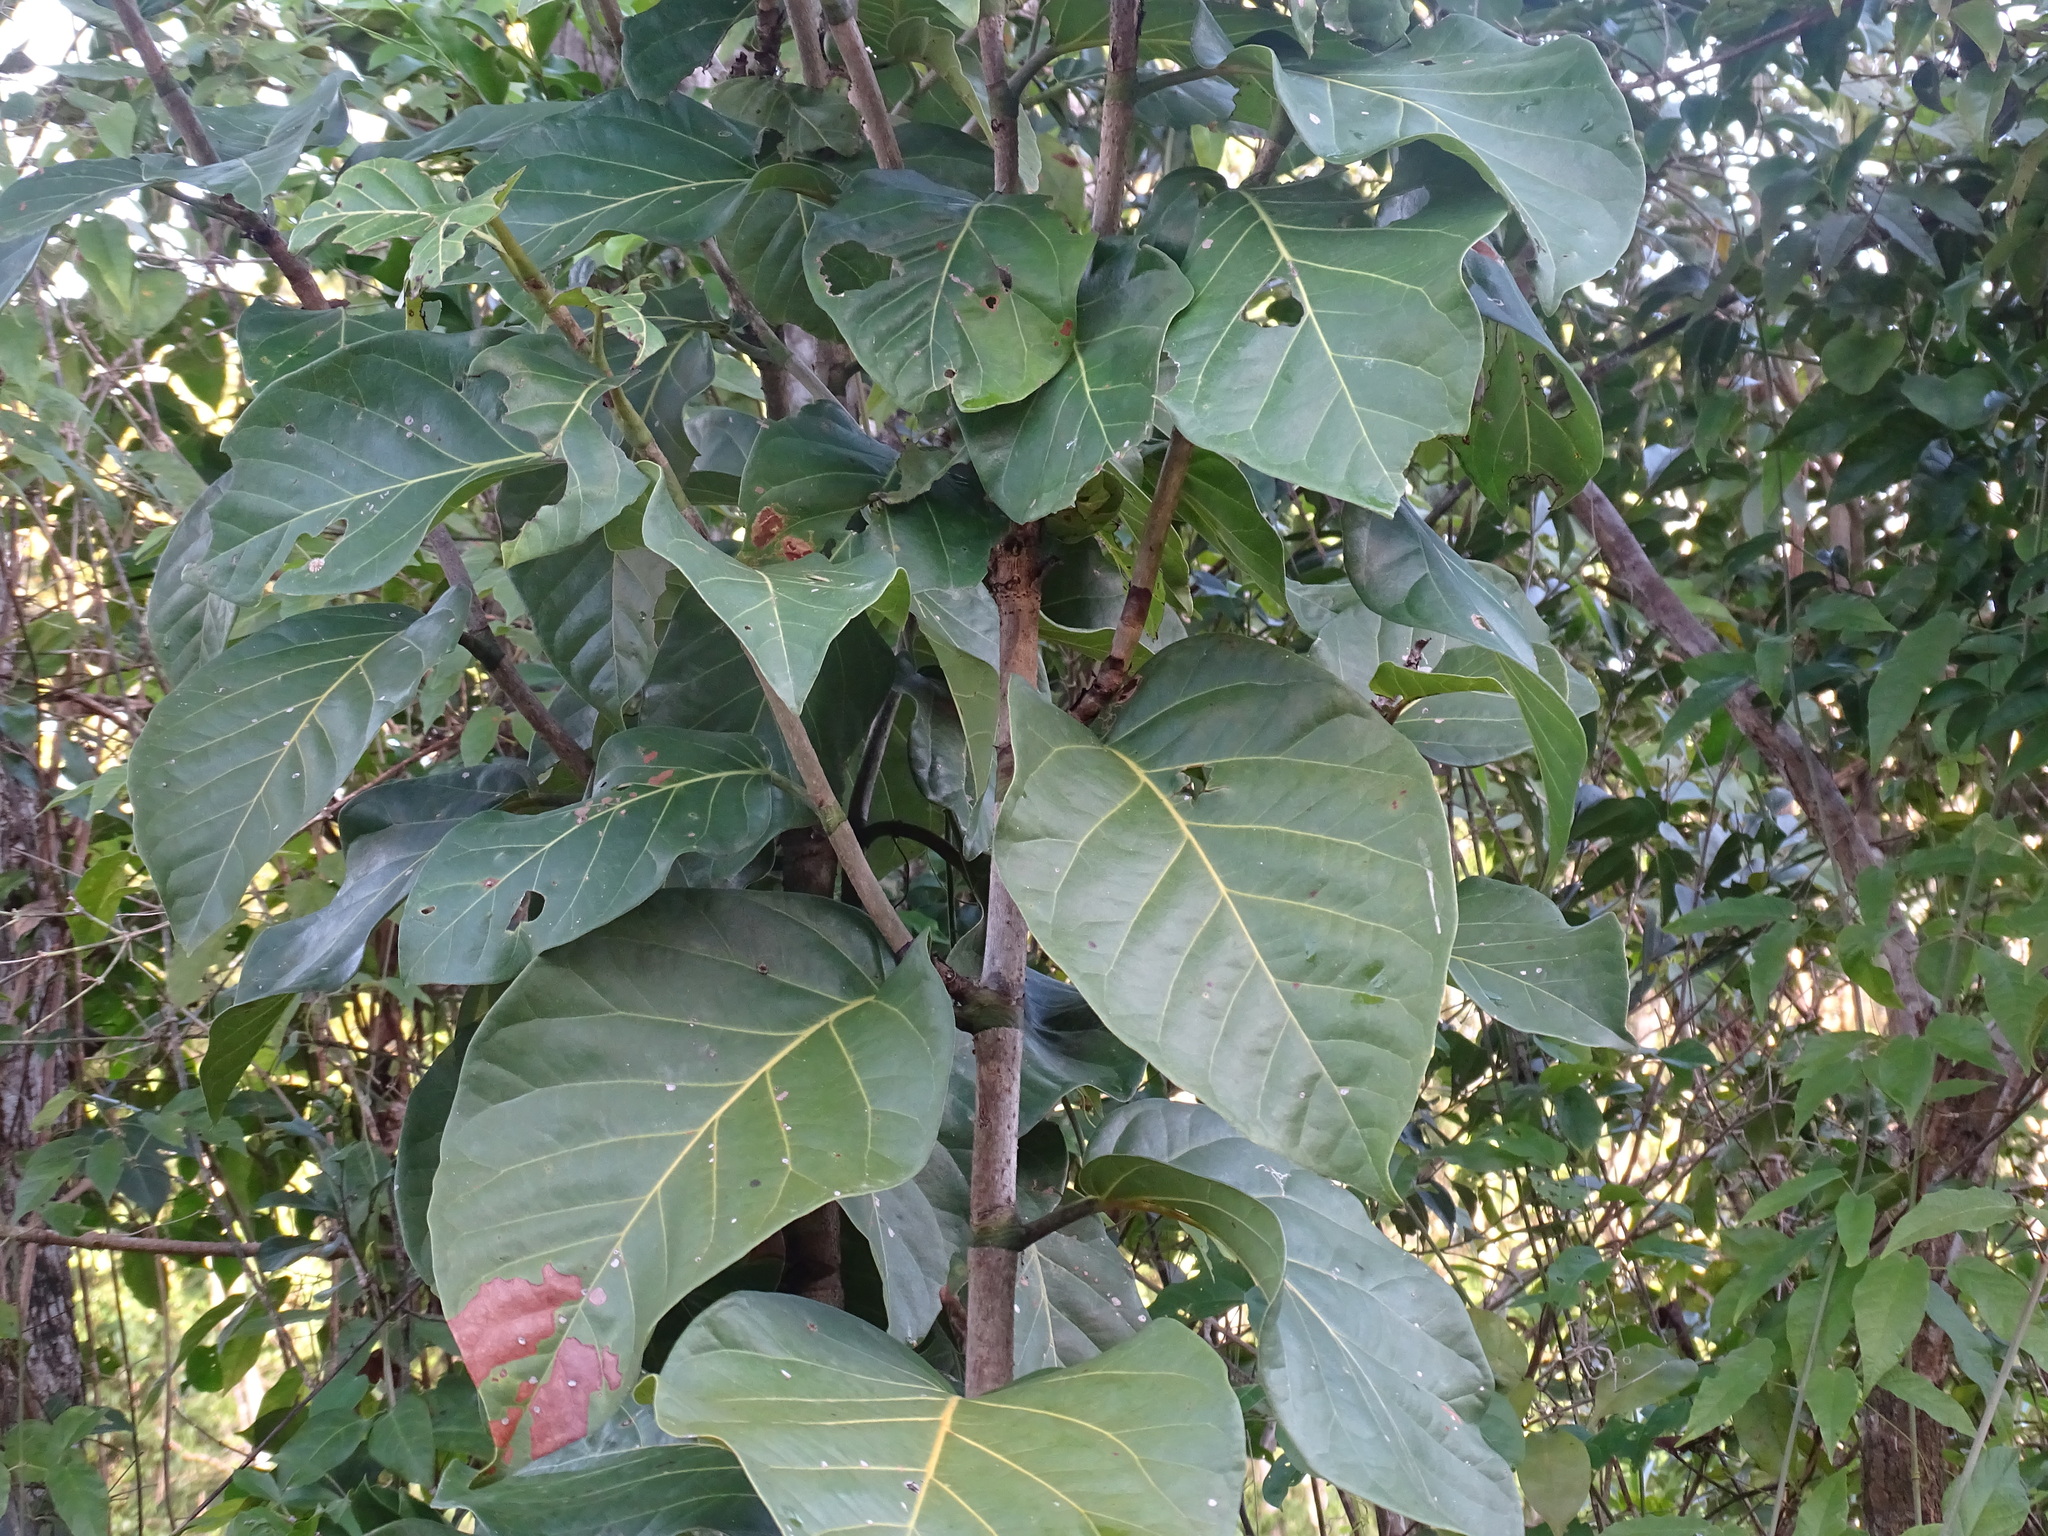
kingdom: Plantae
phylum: Tracheophyta
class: Magnoliopsida
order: Caryophyllales
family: Polygonaceae
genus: Coccoloba
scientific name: Coccoloba spicata
